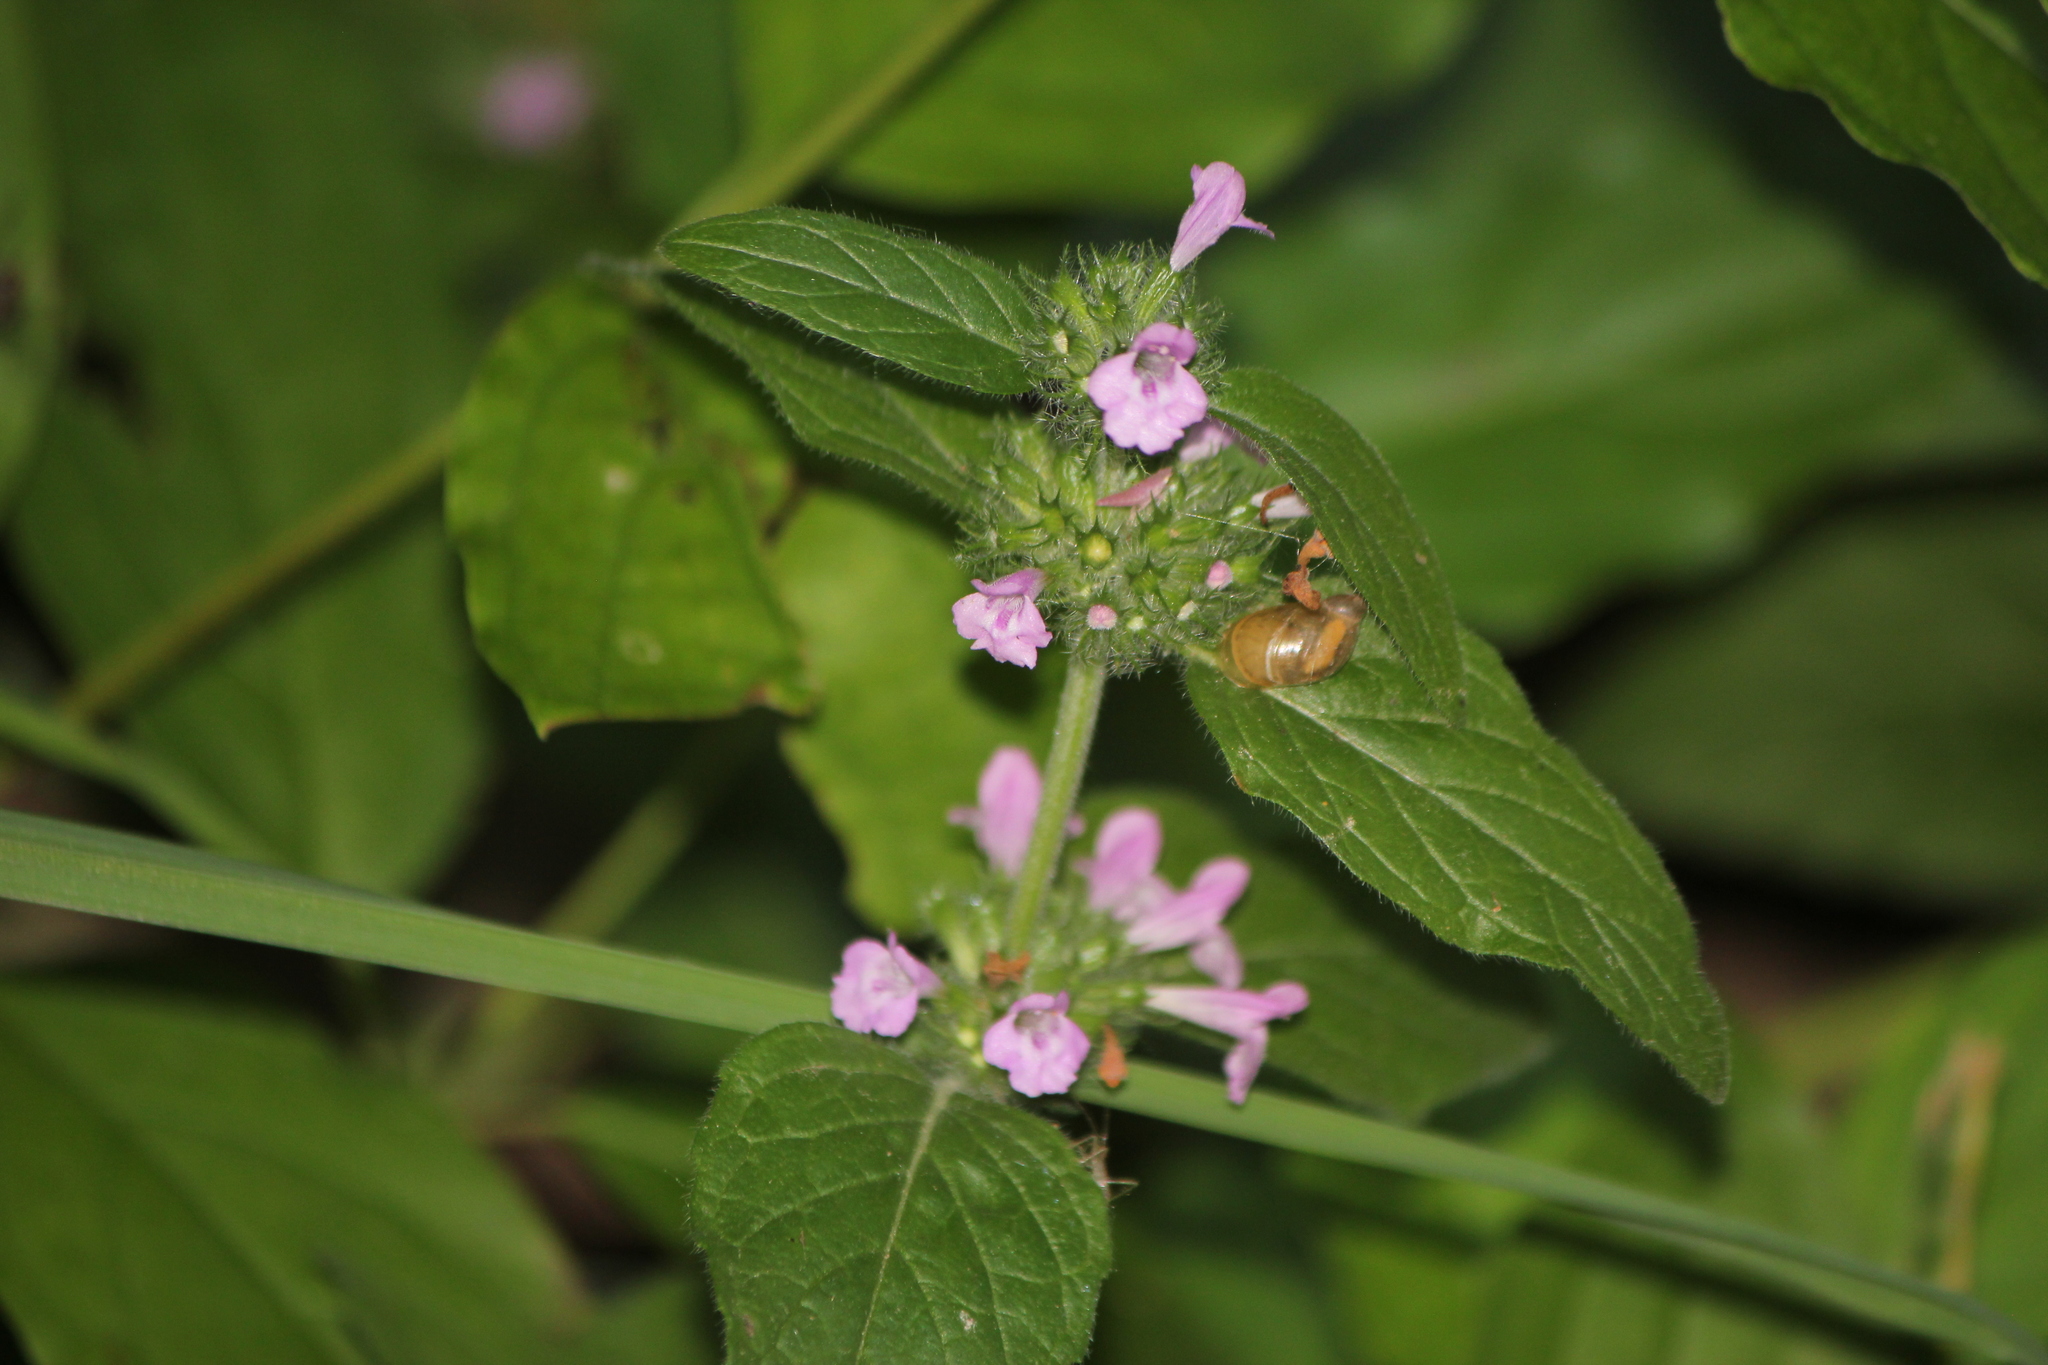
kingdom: Plantae
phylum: Tracheophyta
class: Magnoliopsida
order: Lamiales
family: Lamiaceae
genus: Clinopodium
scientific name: Clinopodium vulgare
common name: Wild basil
